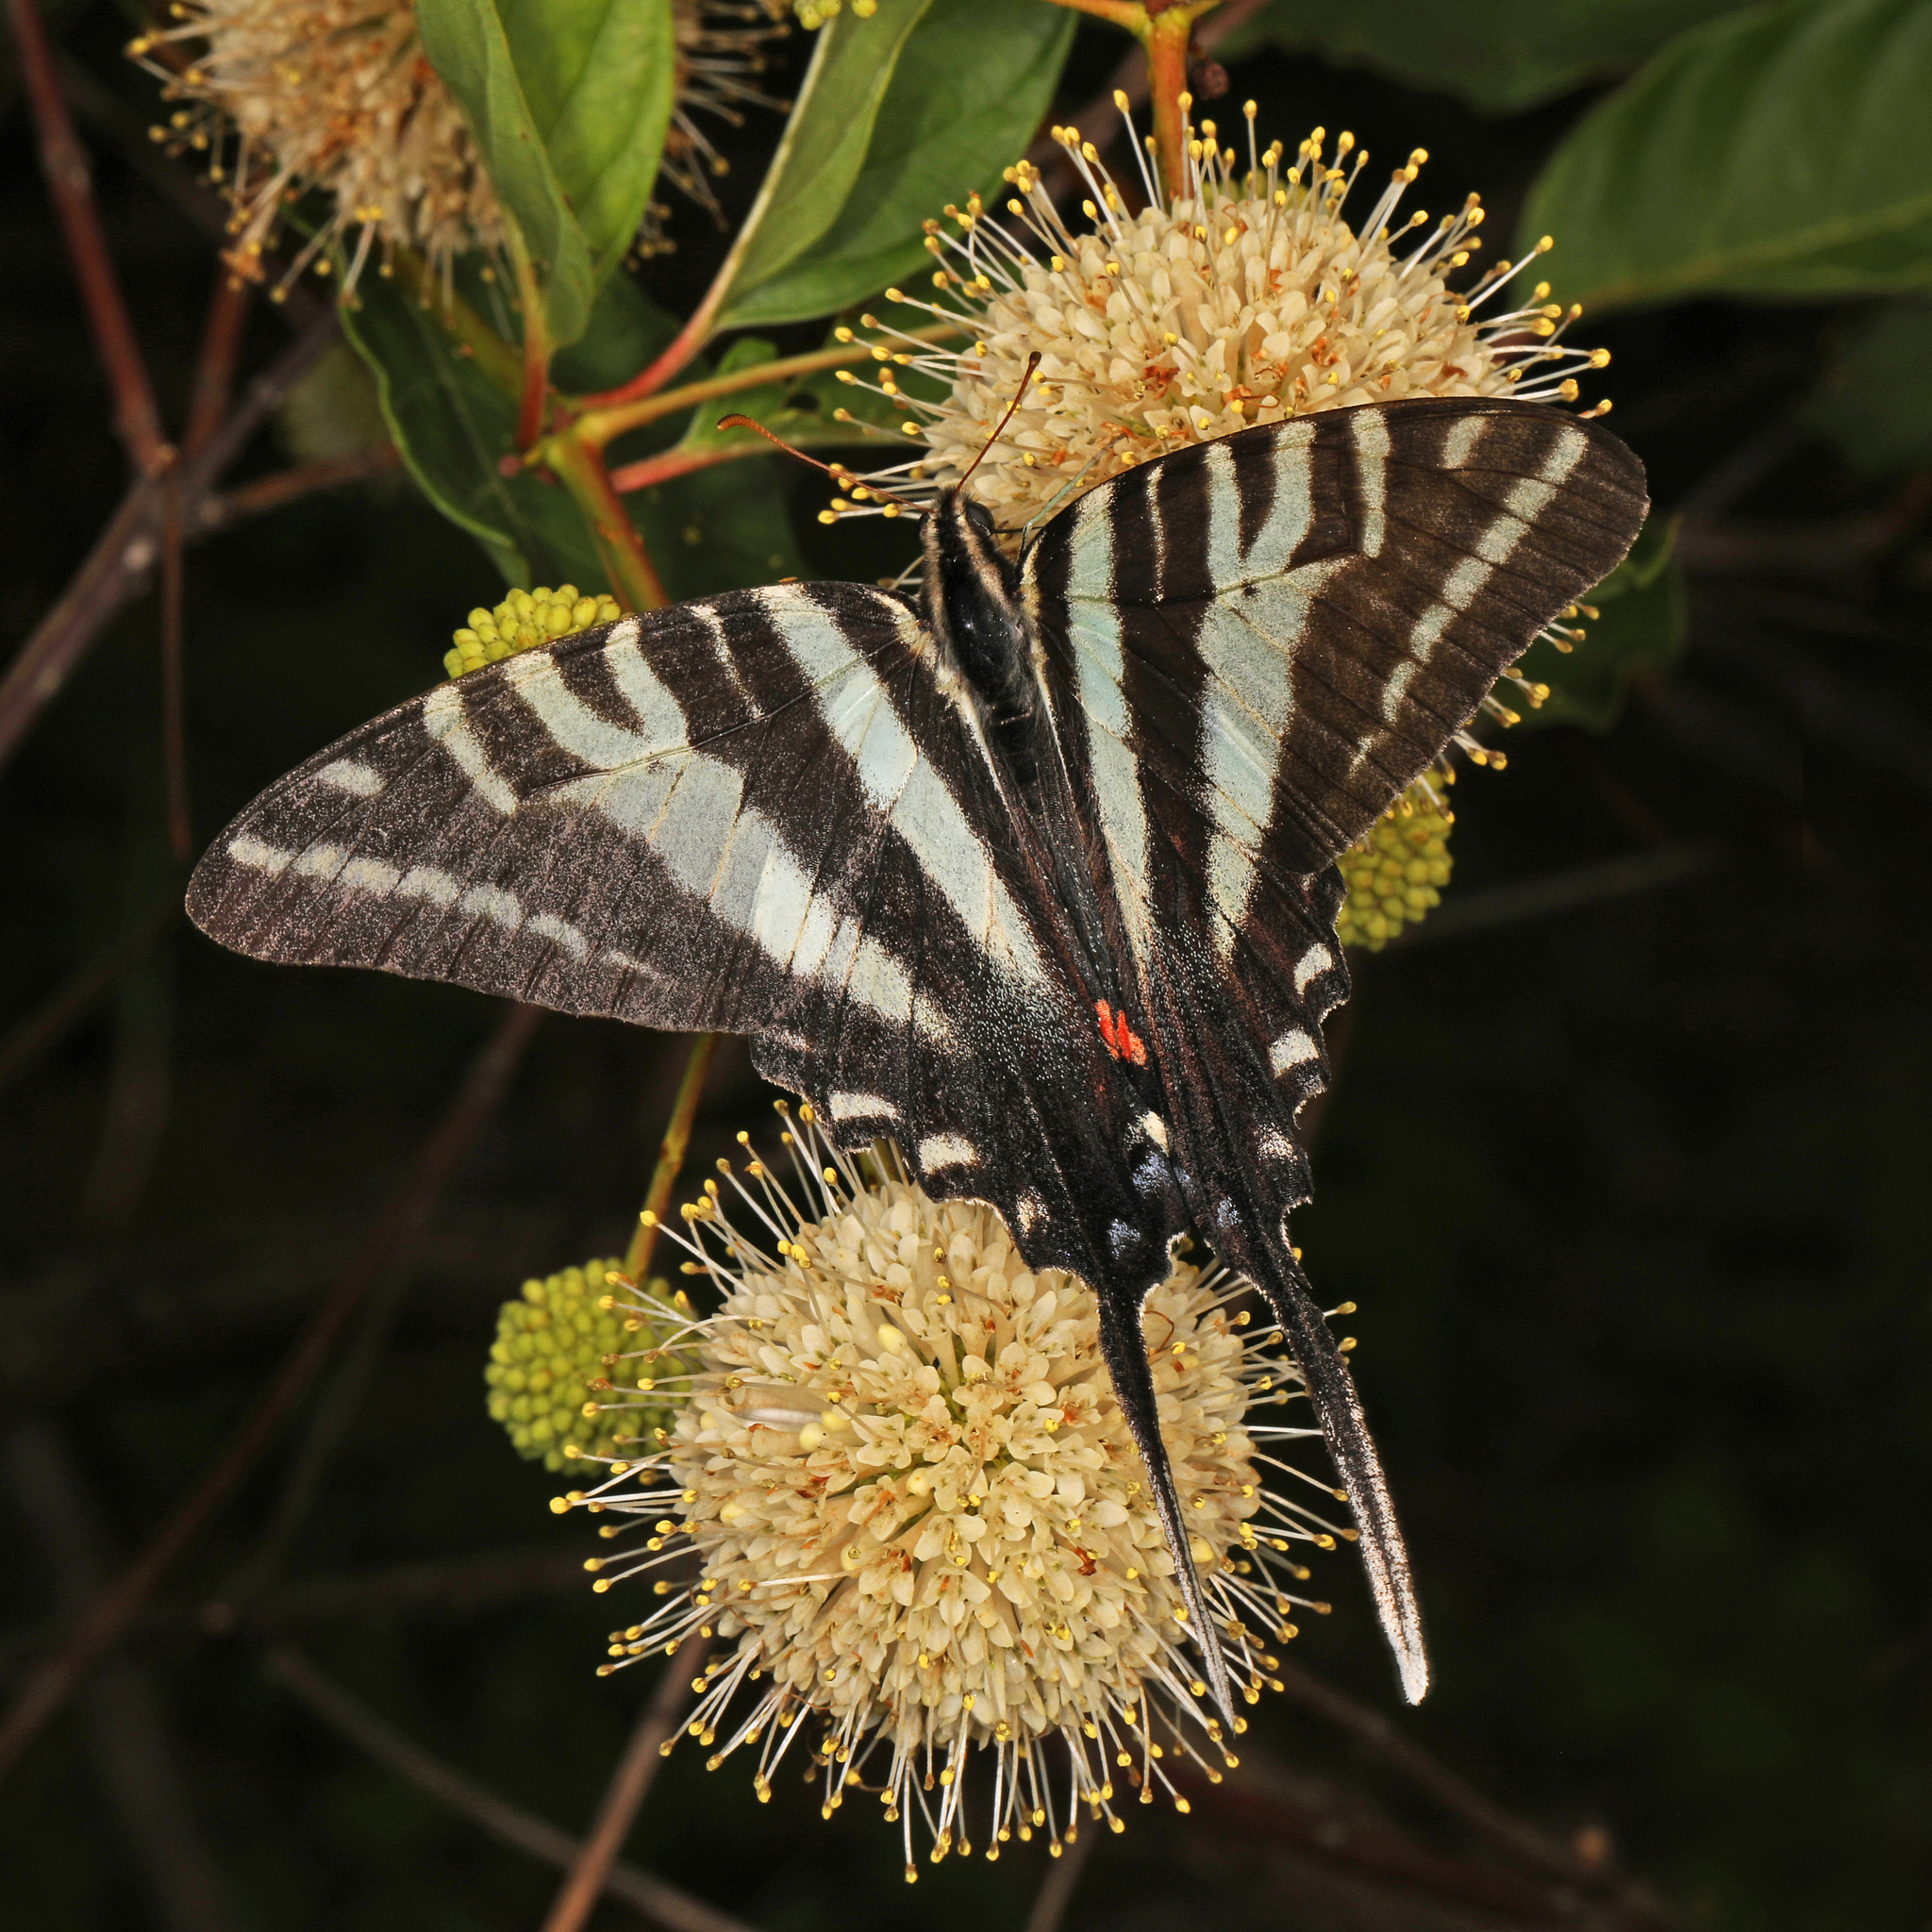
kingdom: Animalia
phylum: Arthropoda
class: Insecta
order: Lepidoptera
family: Papilionidae
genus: Protographium
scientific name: Protographium marcellus
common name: Zebra swallowtail
